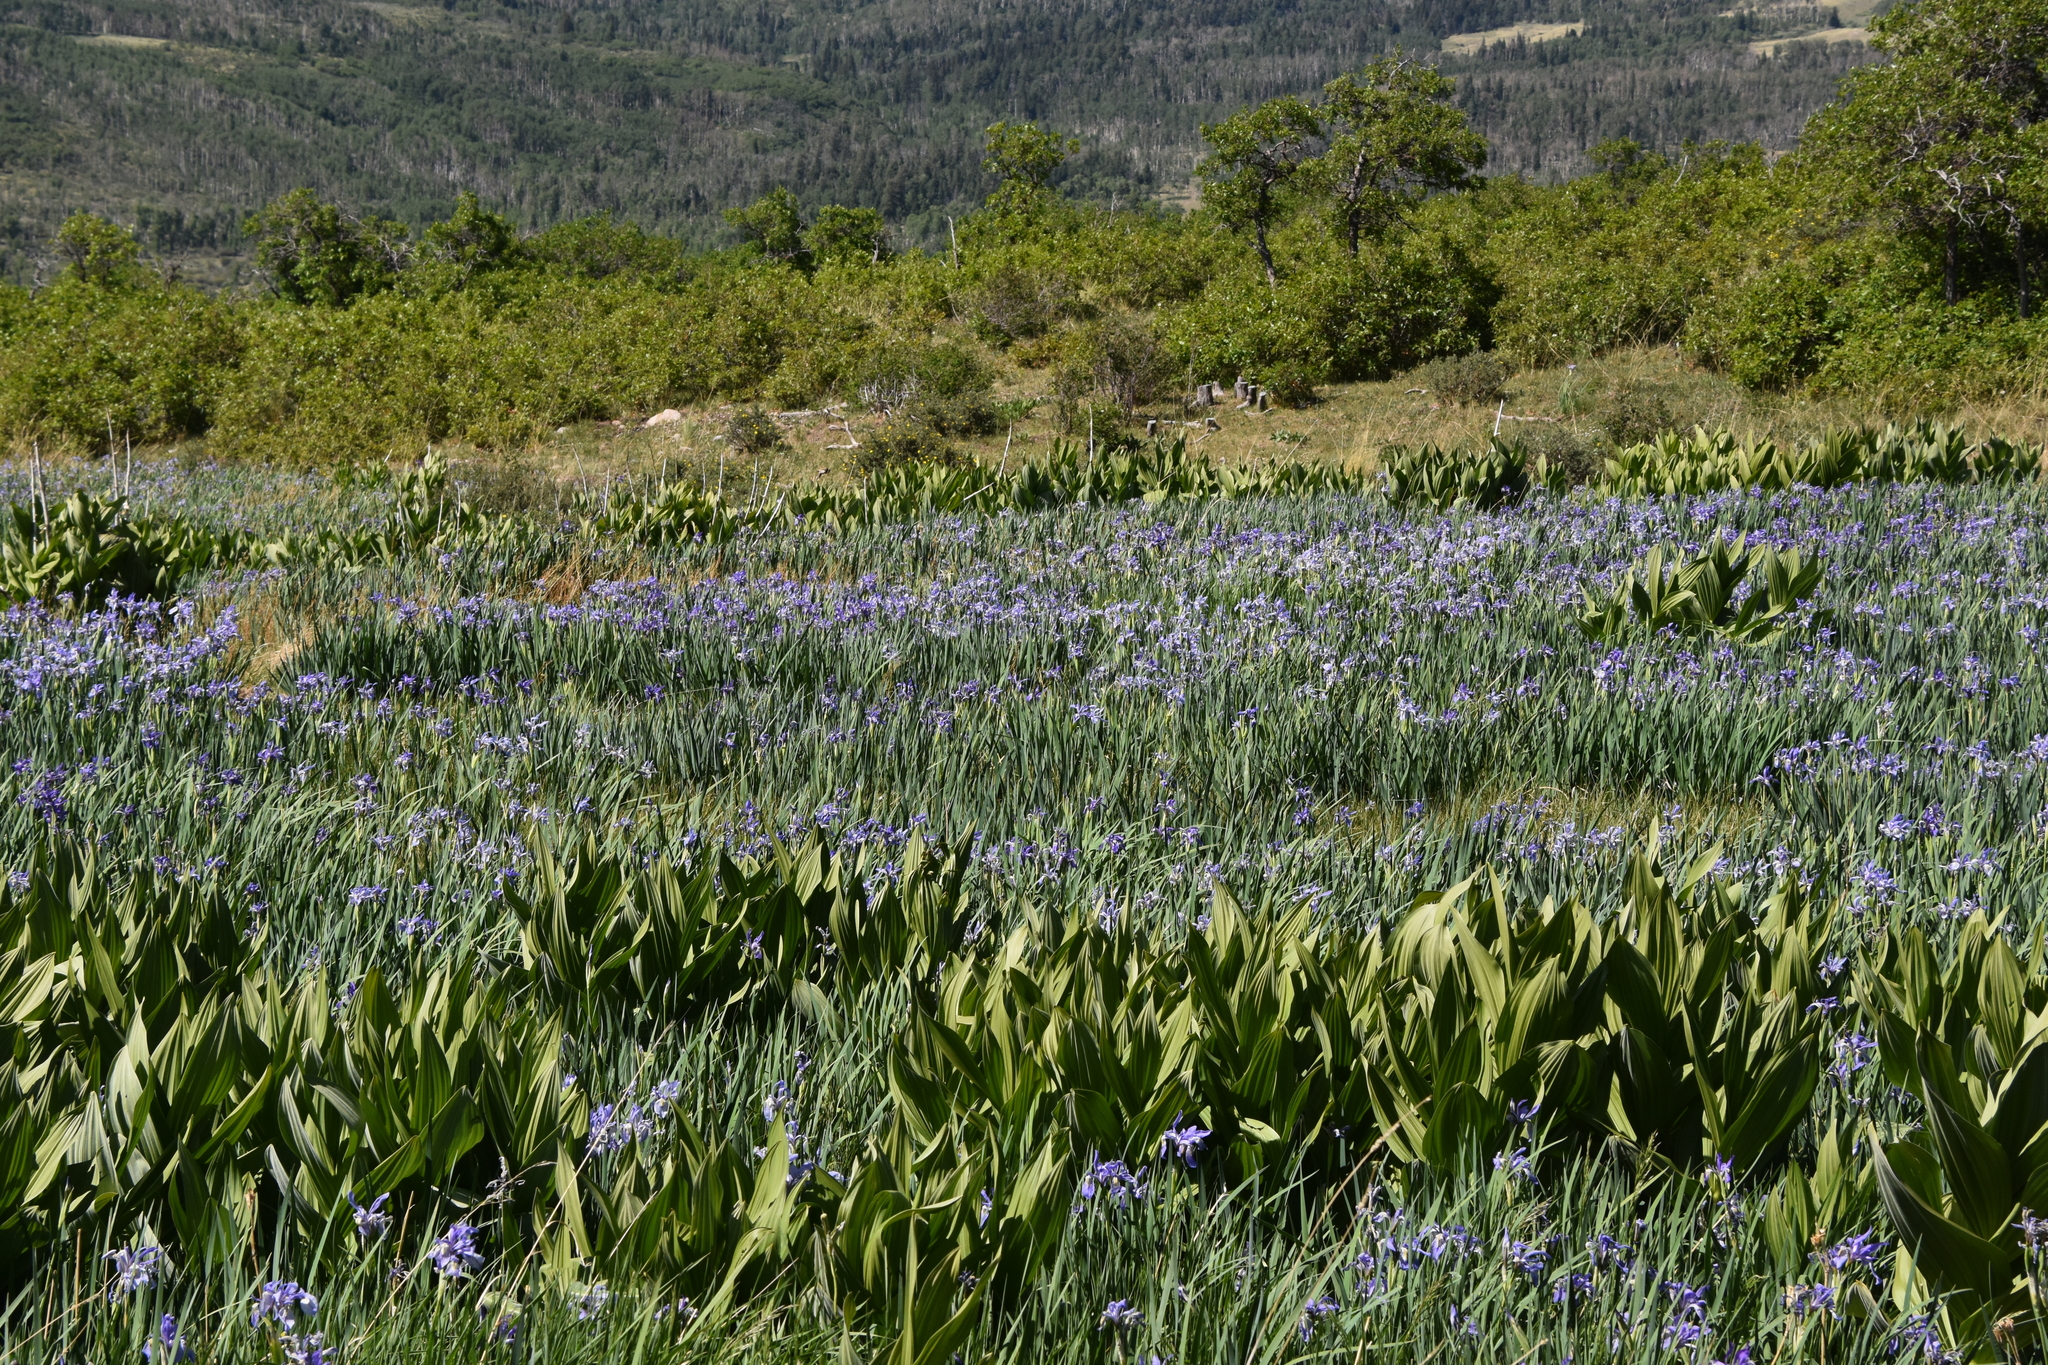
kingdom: Plantae
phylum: Tracheophyta
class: Liliopsida
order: Asparagales
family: Iridaceae
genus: Iris
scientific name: Iris missouriensis
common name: Rocky mountain iris
